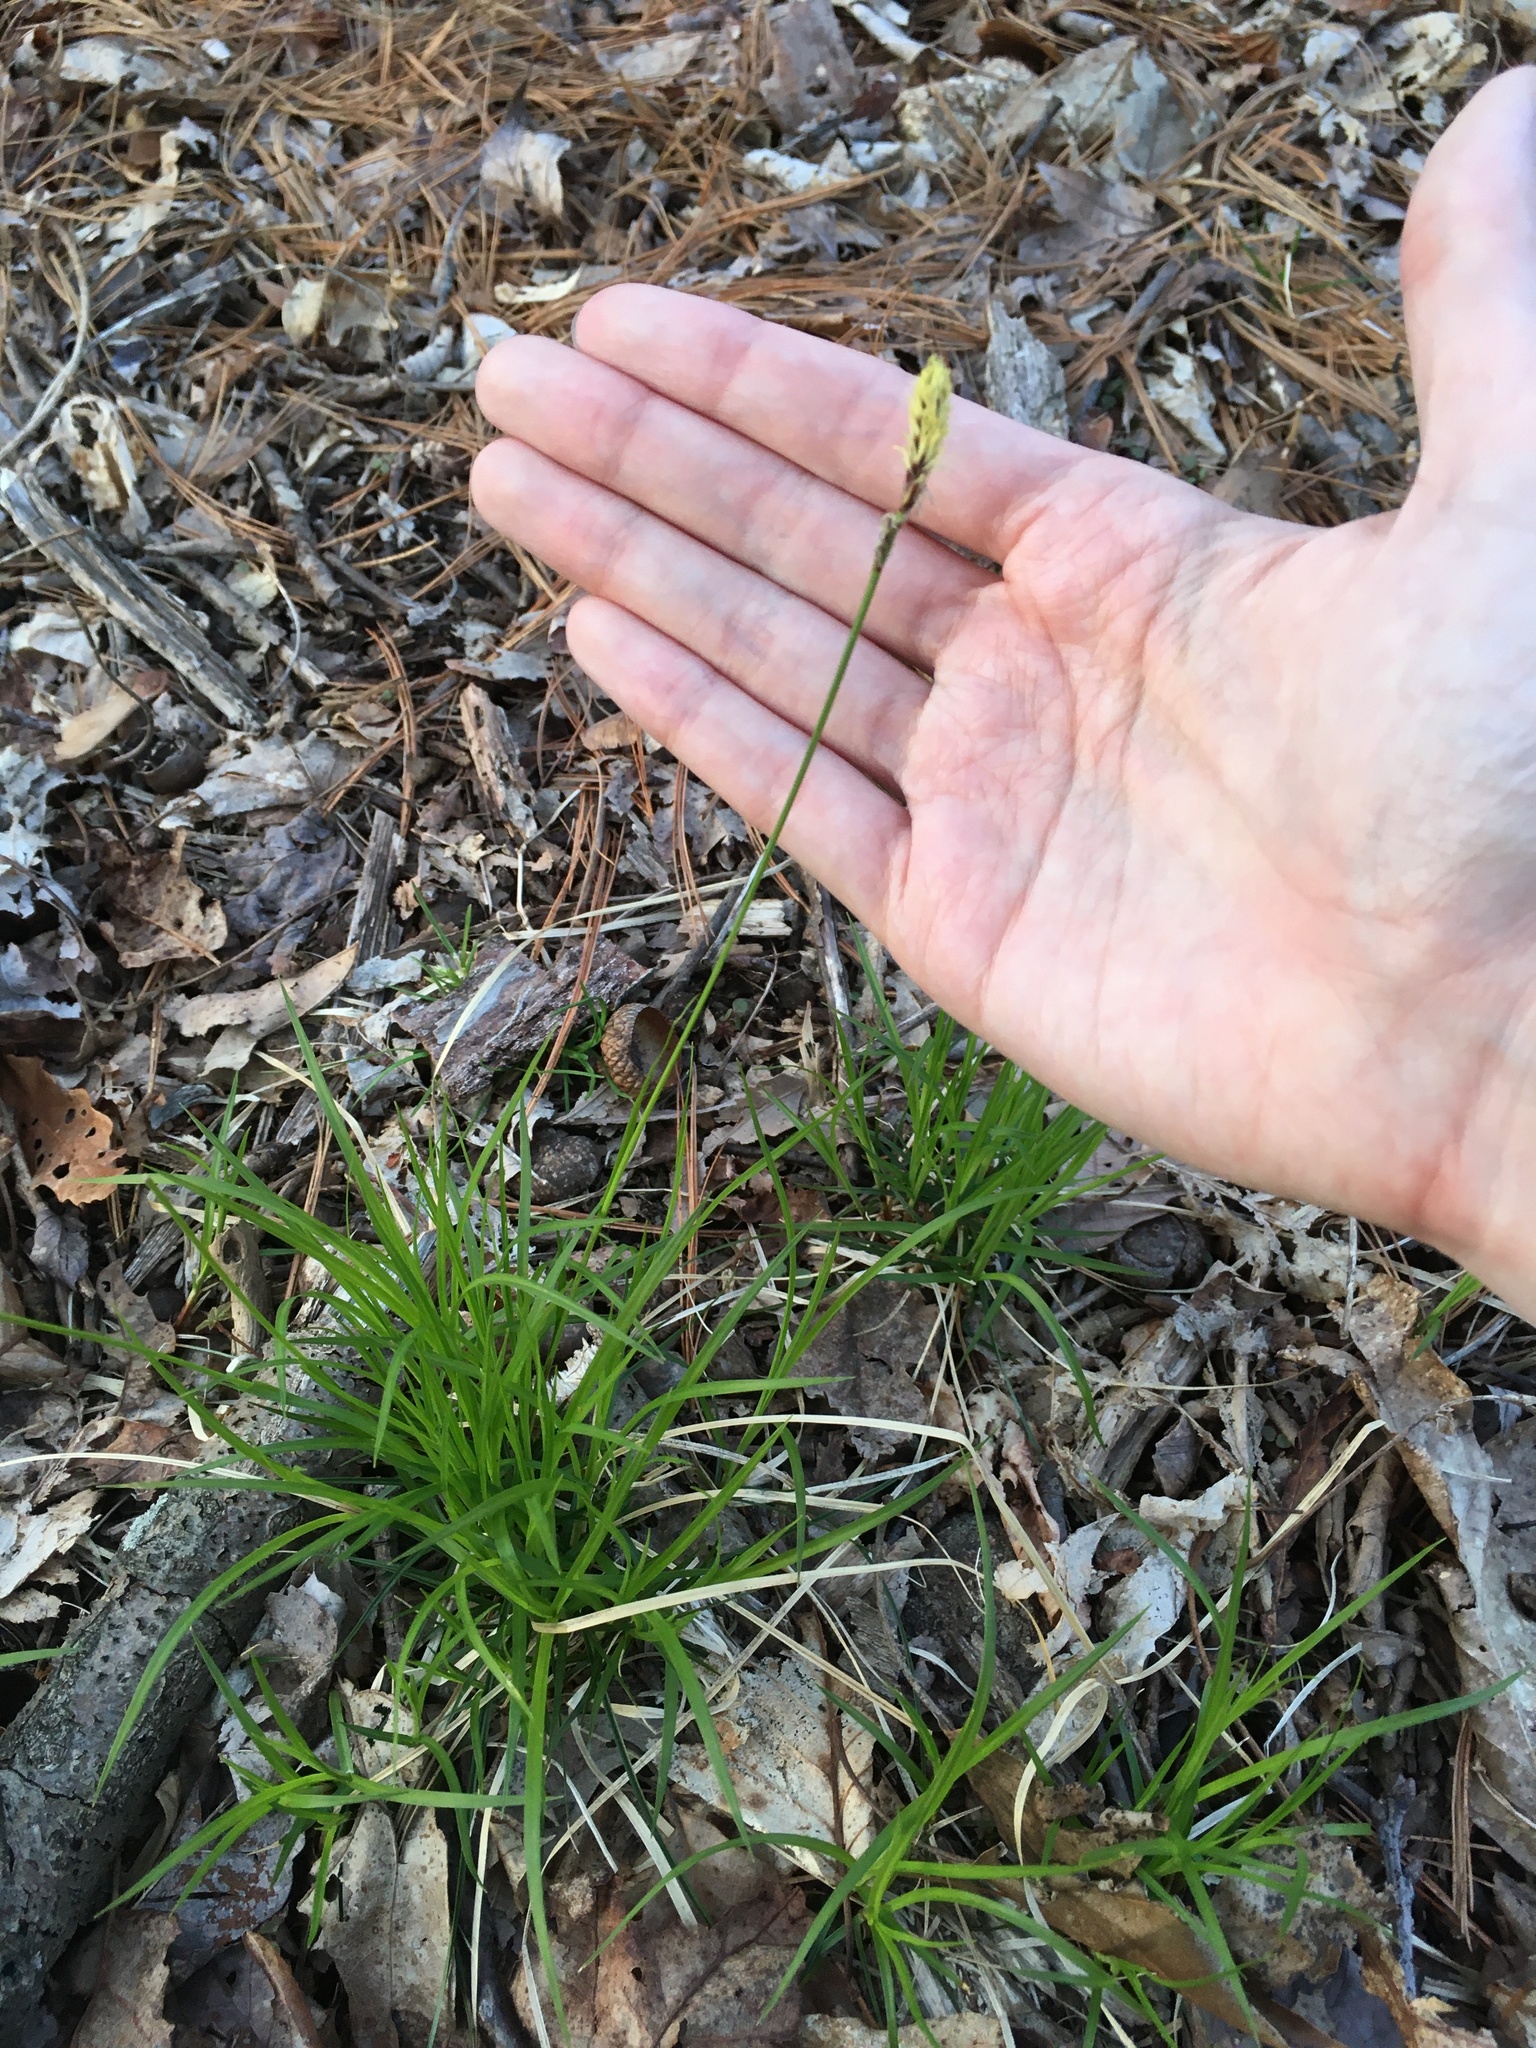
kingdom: Plantae
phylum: Tracheophyta
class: Liliopsida
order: Poales
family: Cyperaceae
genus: Carex
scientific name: Carex pensylvanica
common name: Common oak sedge
